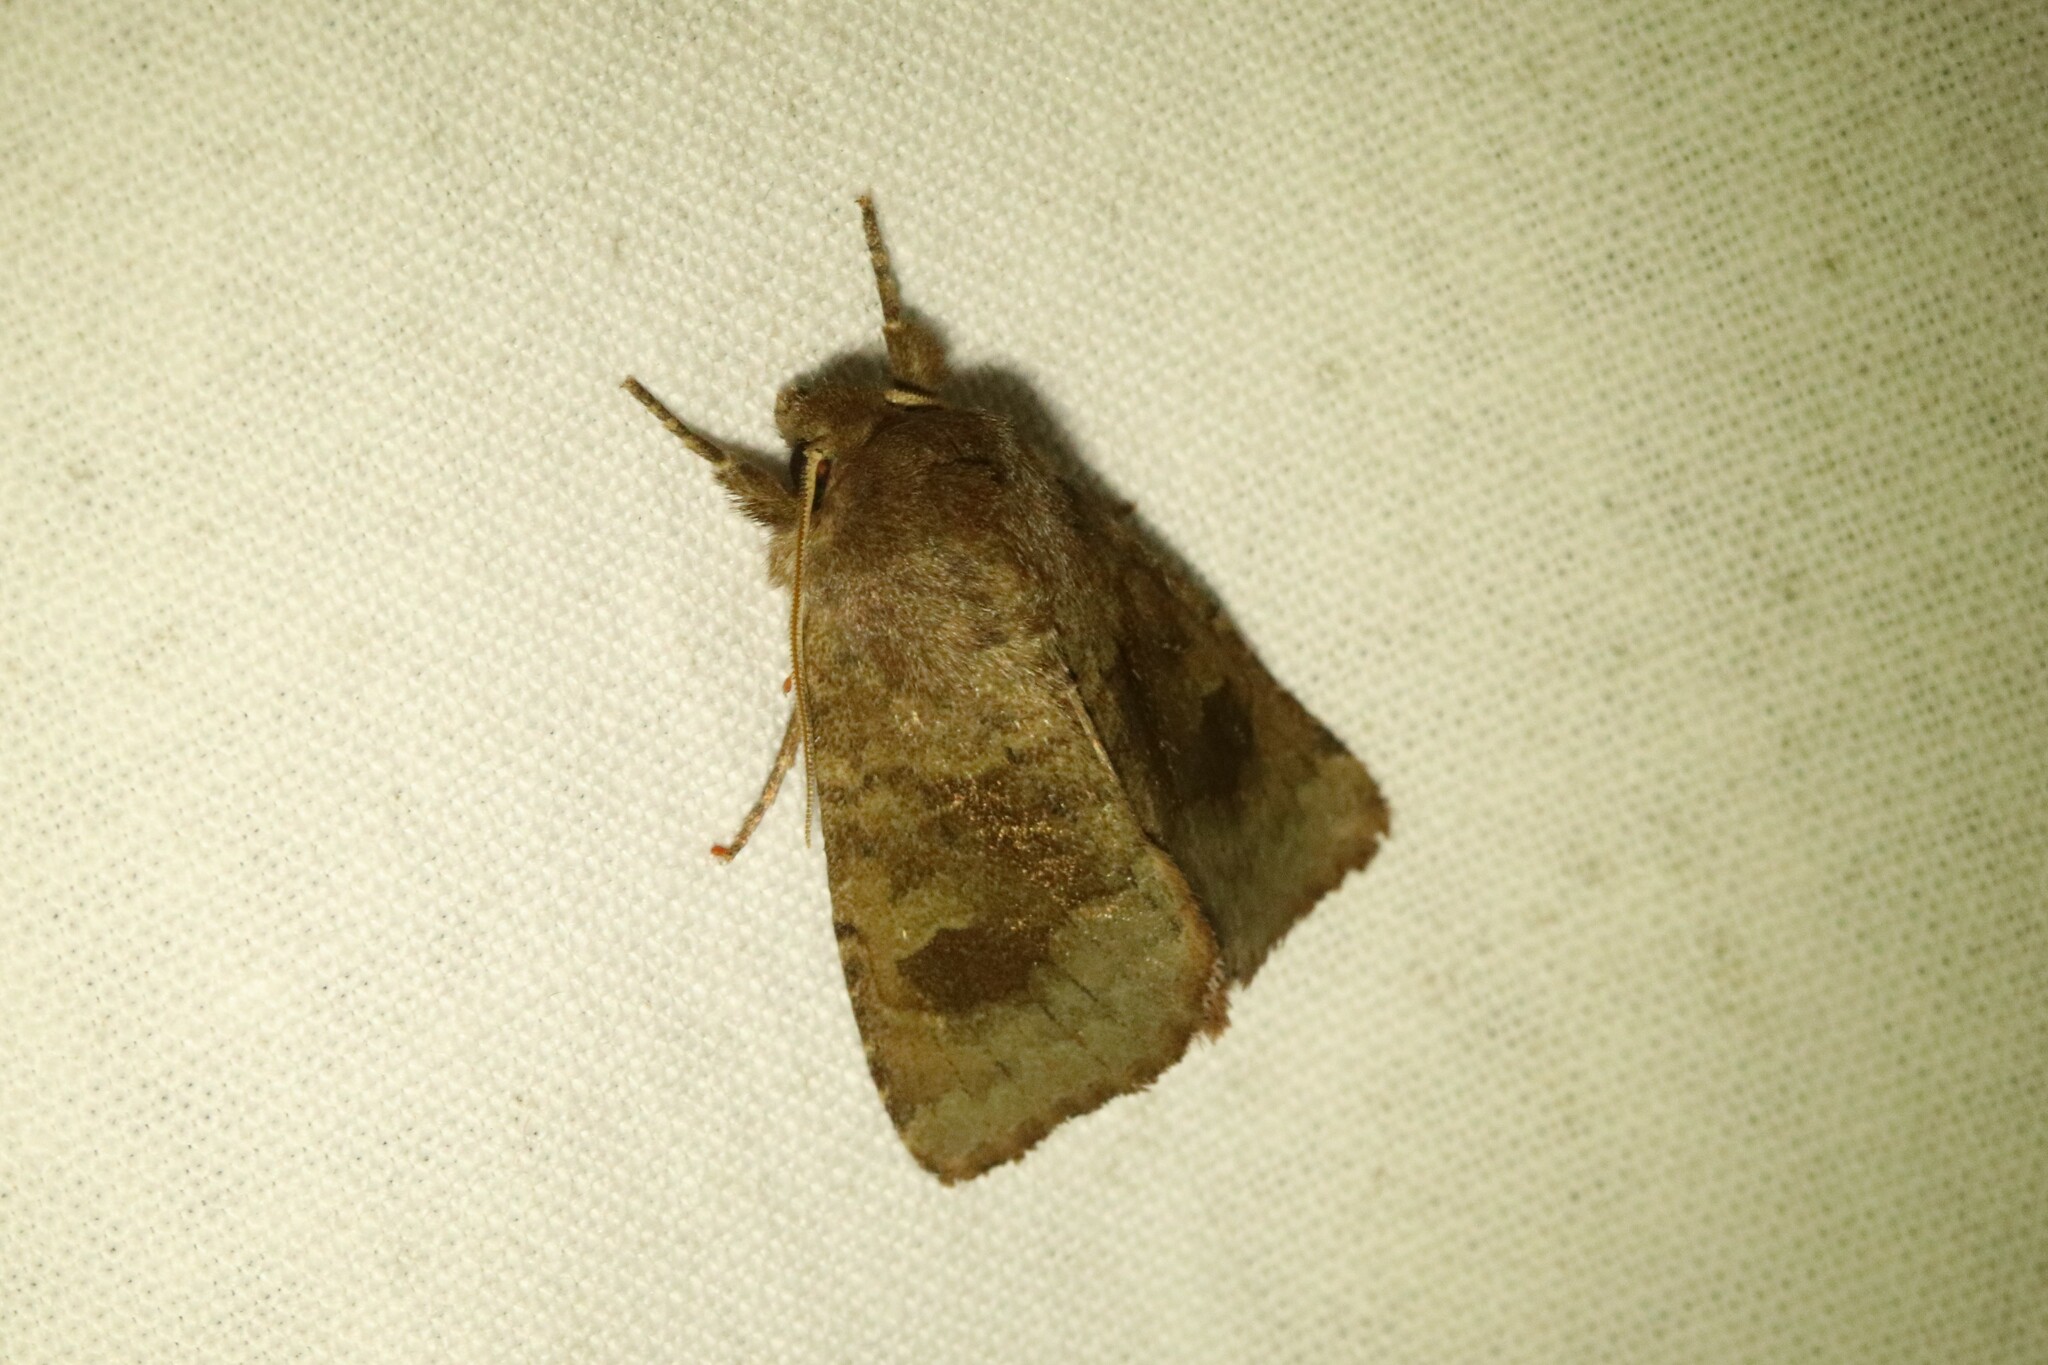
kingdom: Animalia
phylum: Arthropoda
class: Insecta
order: Lepidoptera
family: Noctuidae
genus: Nephelodes
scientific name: Nephelodes minians
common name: Bronzed cutworm
